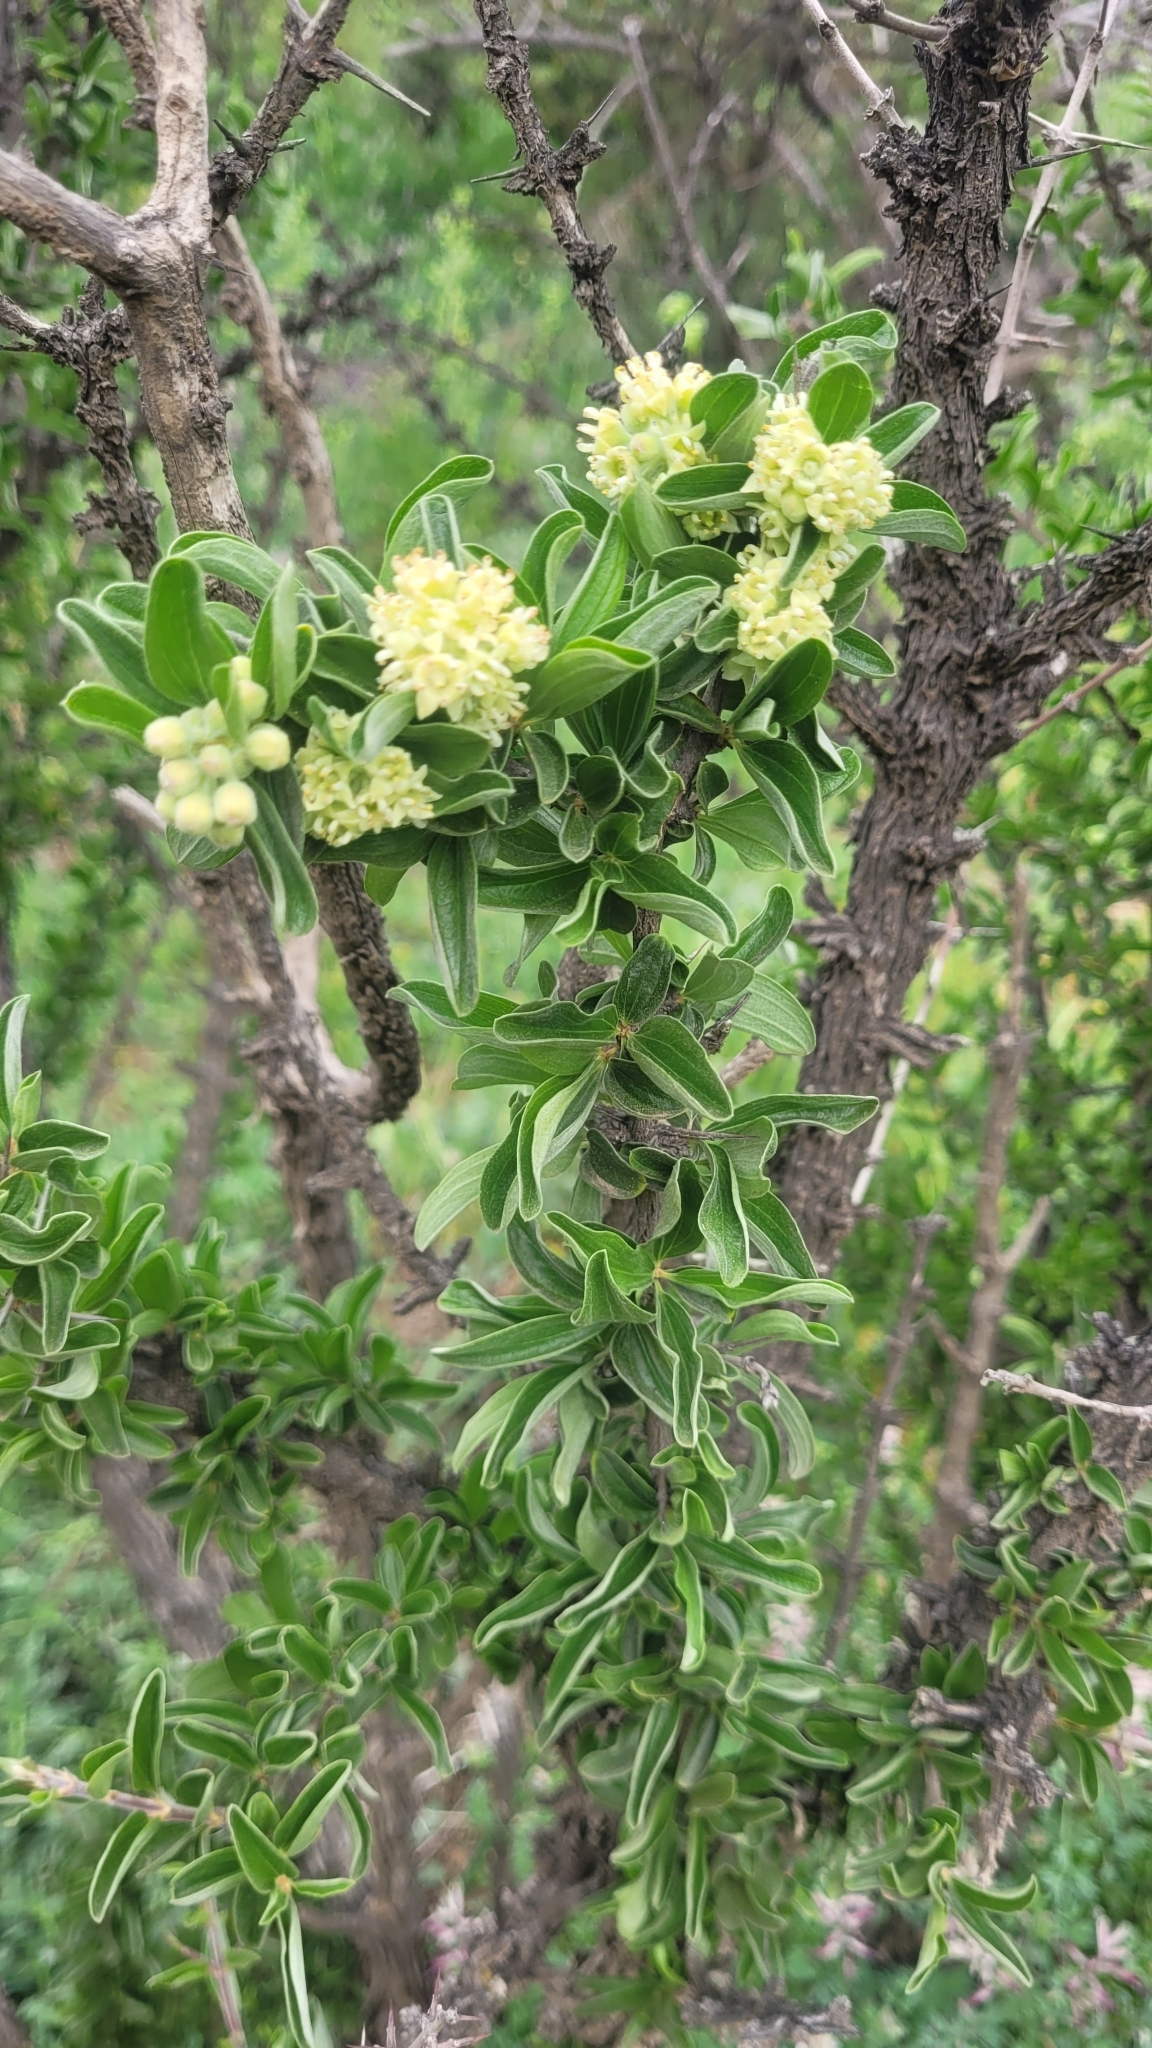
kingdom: Plantae
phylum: Tracheophyta
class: Magnoliopsida
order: Rosales
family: Rhamnaceae
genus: Trevoa
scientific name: Trevoa quinquenervia
